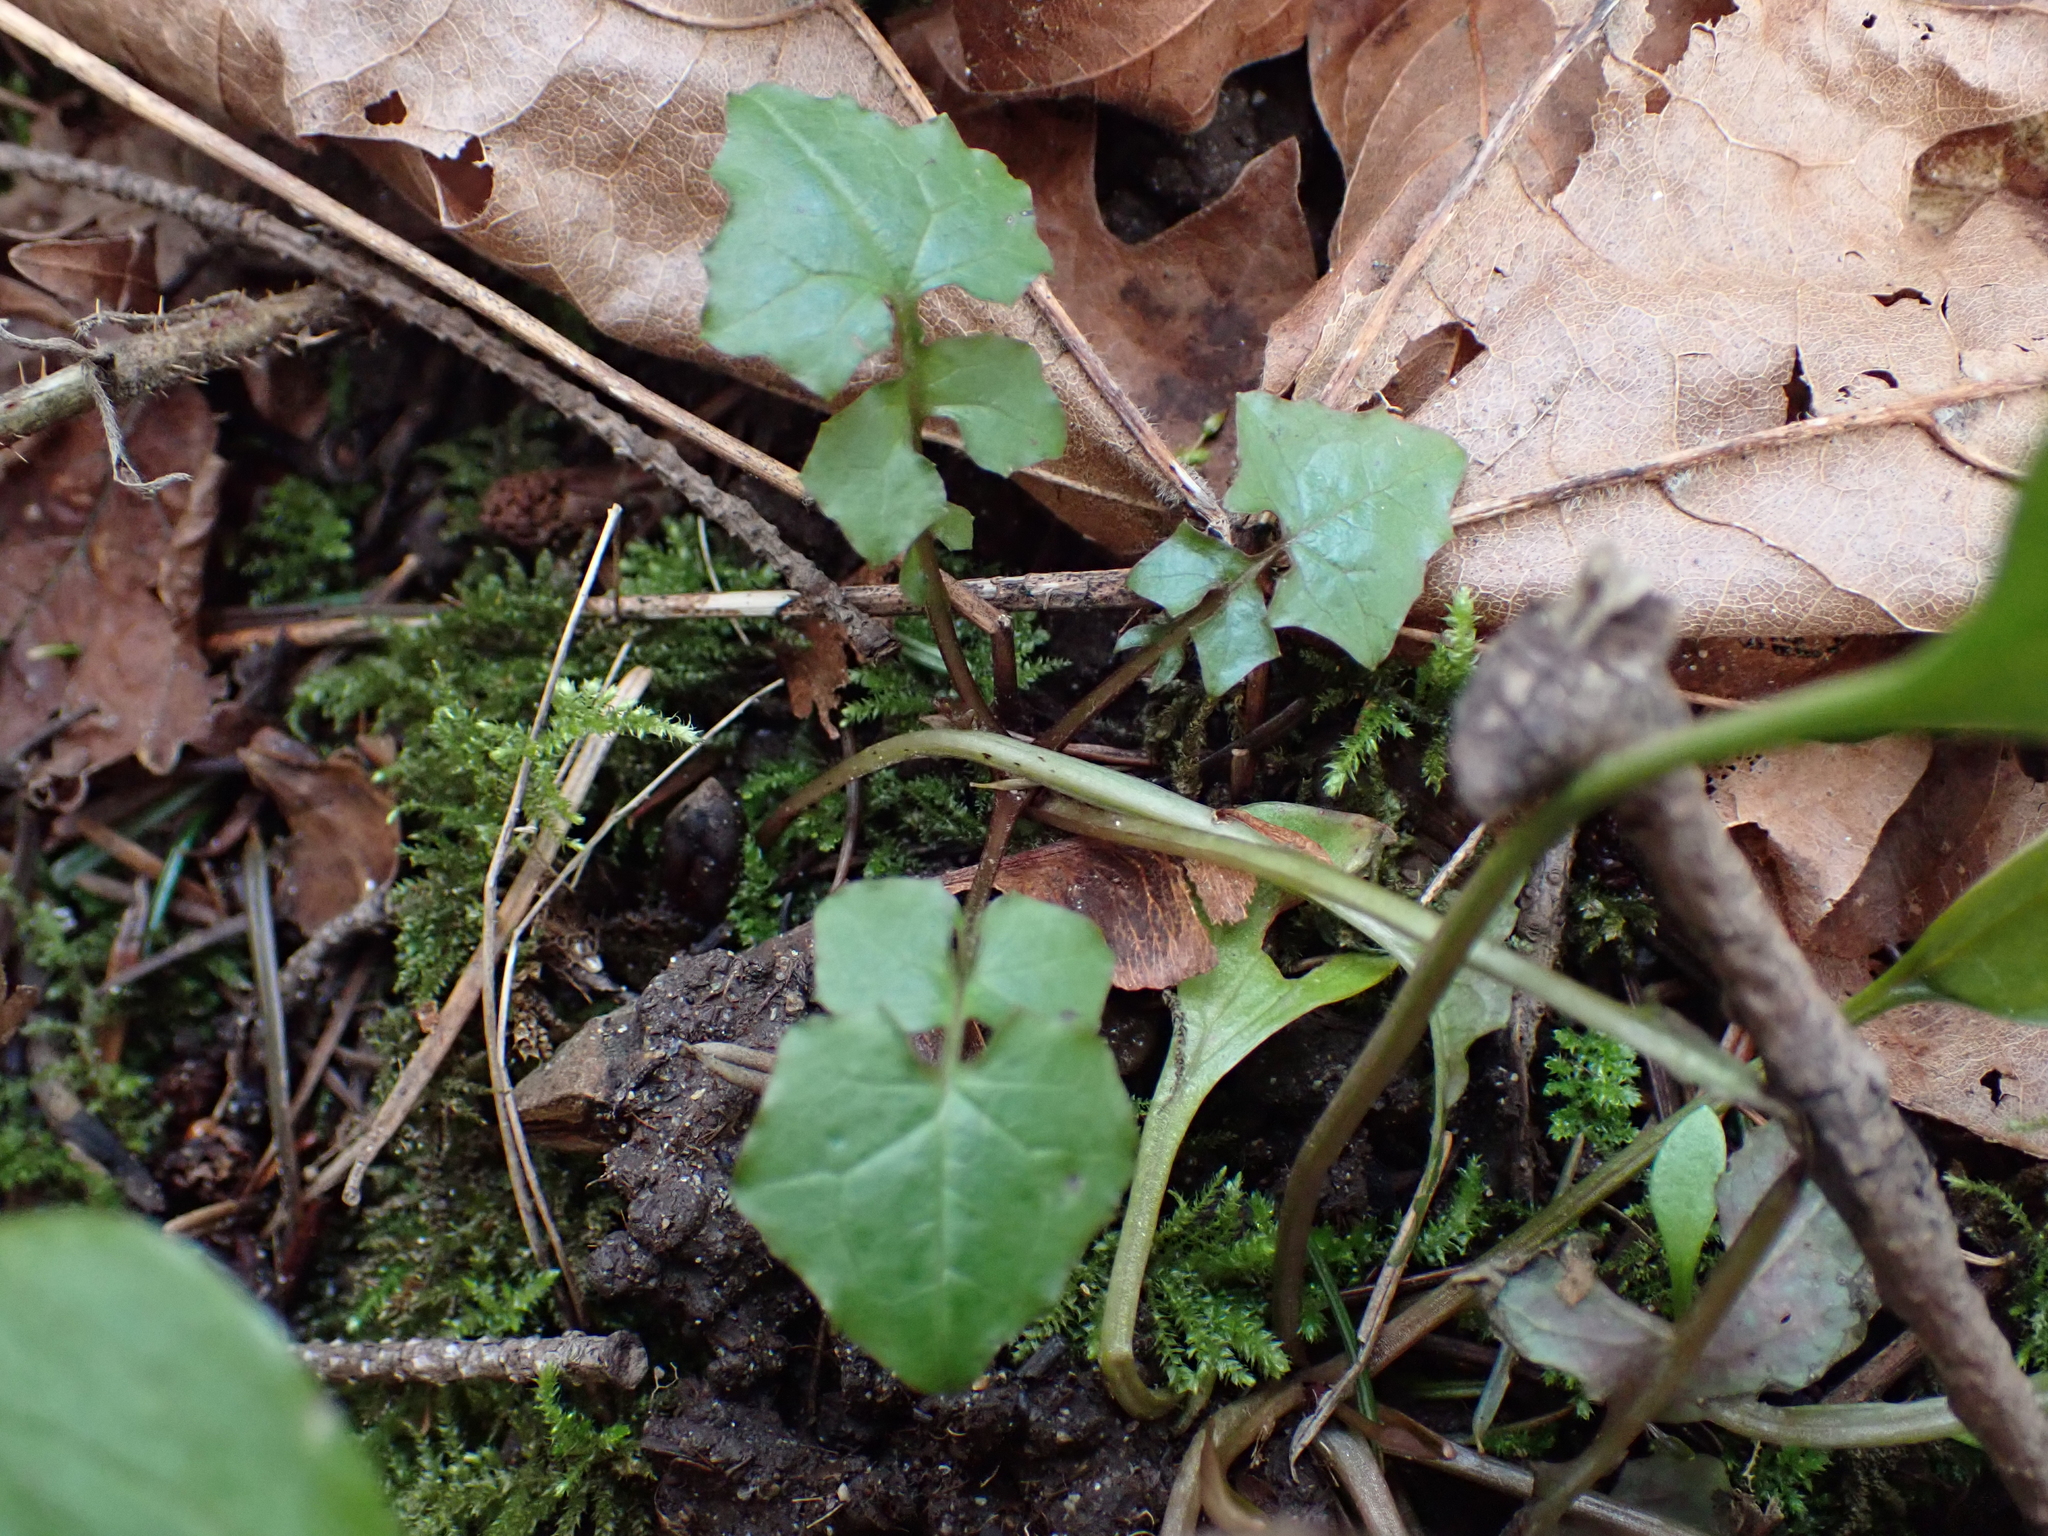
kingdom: Plantae
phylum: Tracheophyta
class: Magnoliopsida
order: Asterales
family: Asteraceae
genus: Mycelis
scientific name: Mycelis muralis
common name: Wall lettuce
